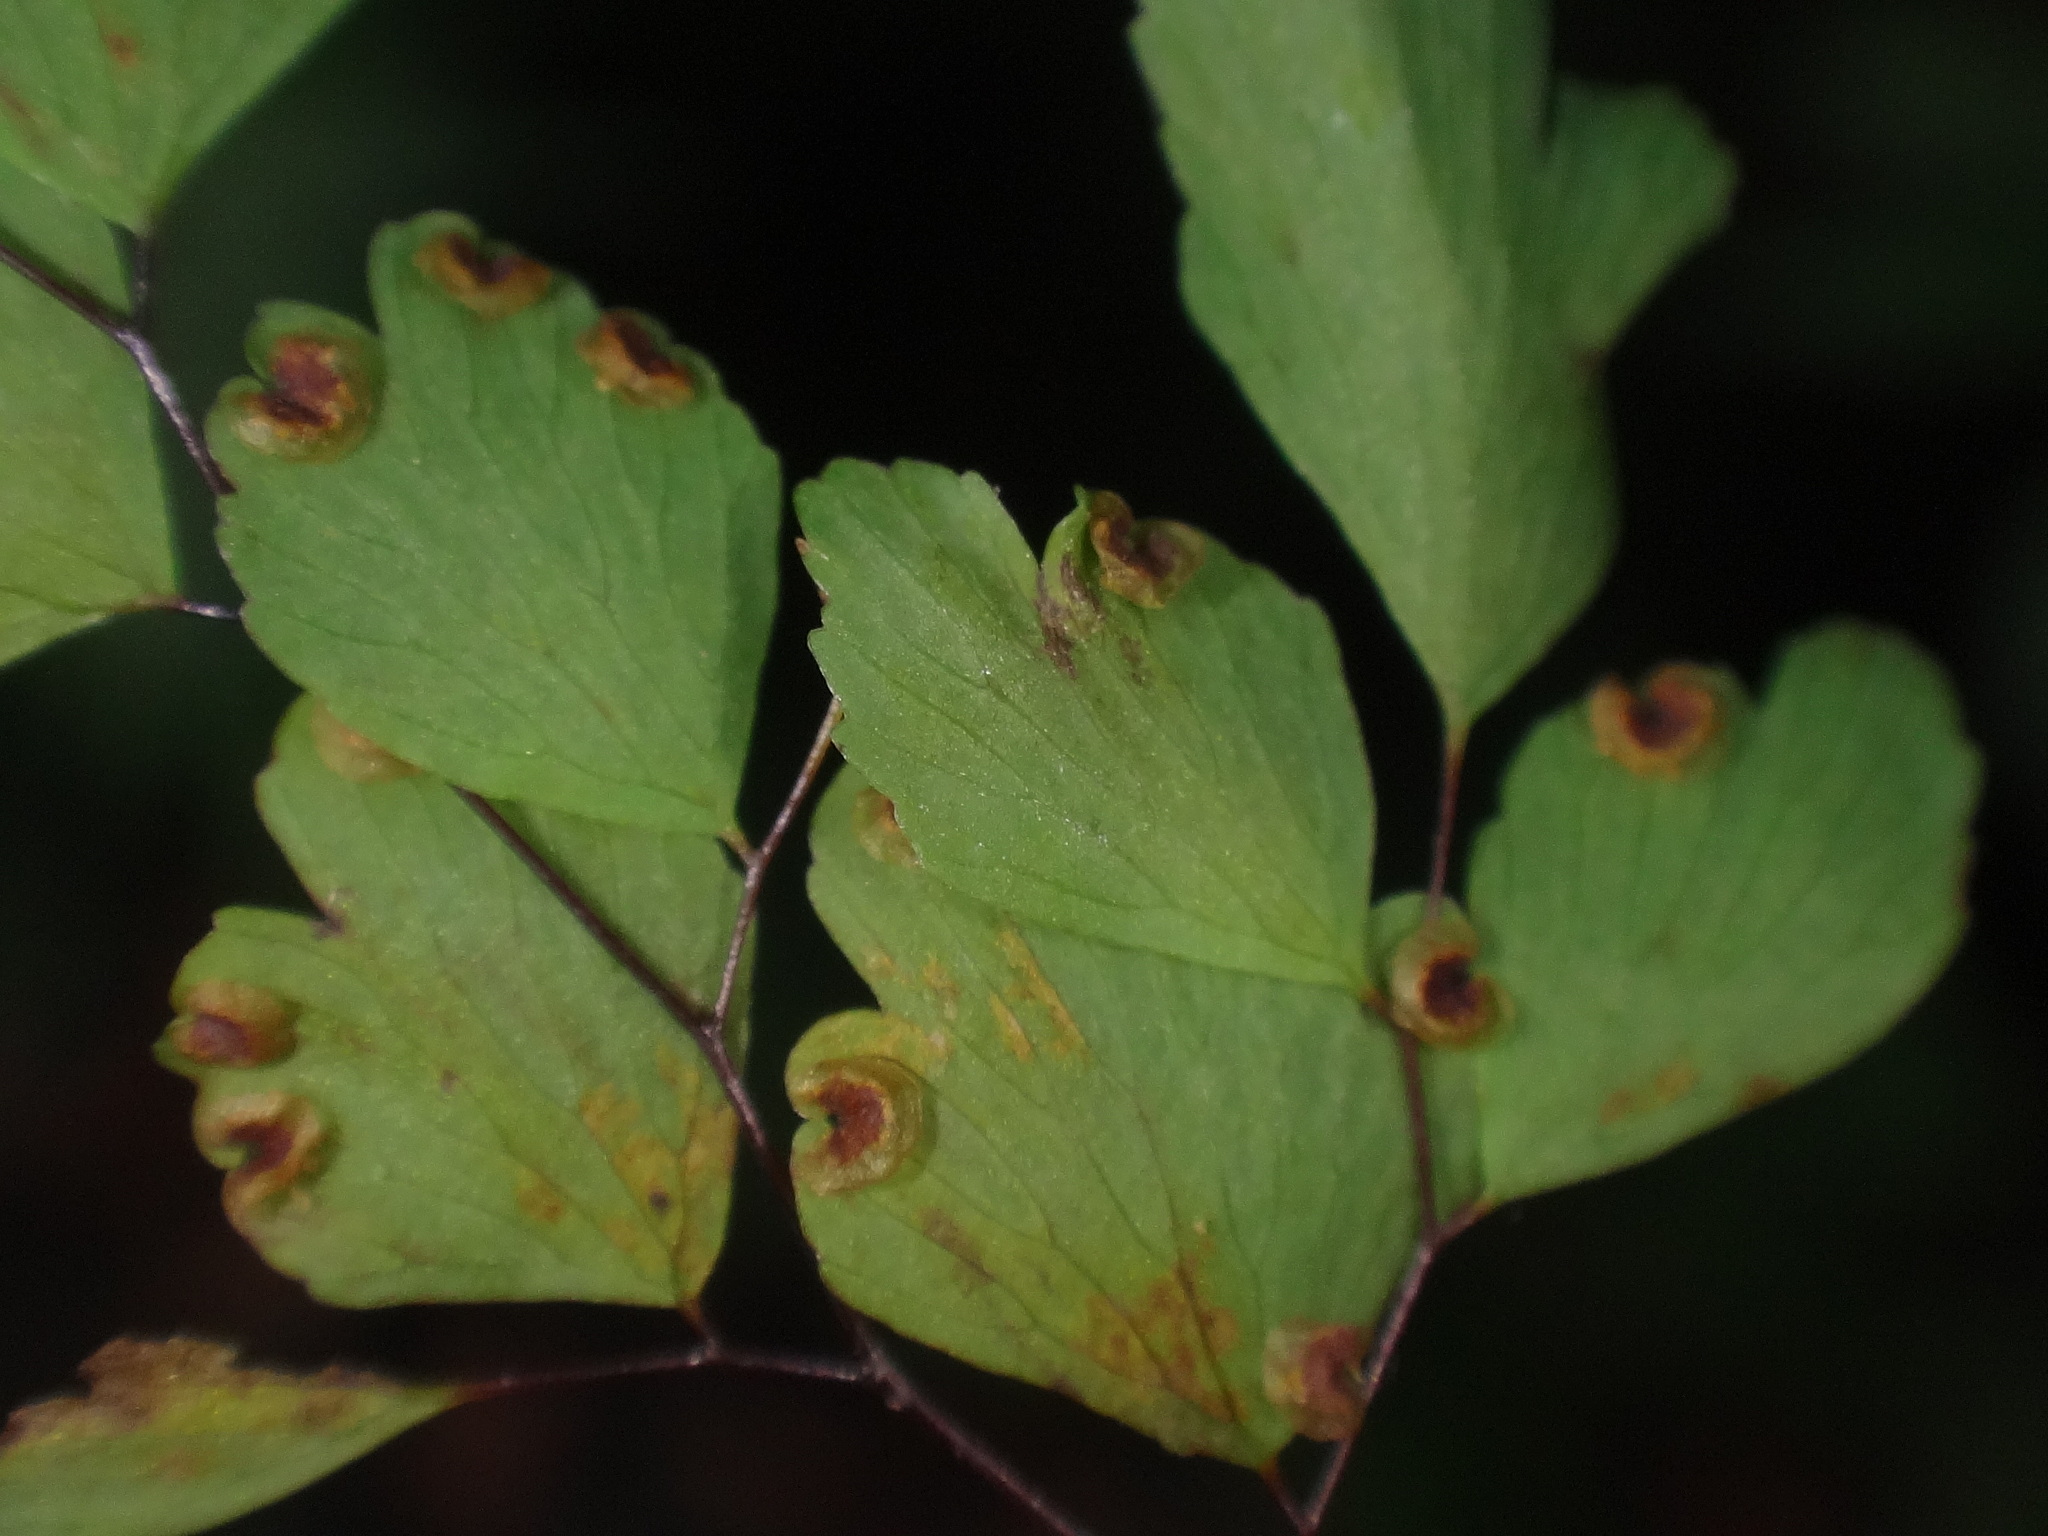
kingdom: Plantae
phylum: Tracheophyta
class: Polypodiopsida
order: Polypodiales
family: Pteridaceae
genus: Adiantum
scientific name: Adiantum raddianum
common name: Delta maidenhair fern
